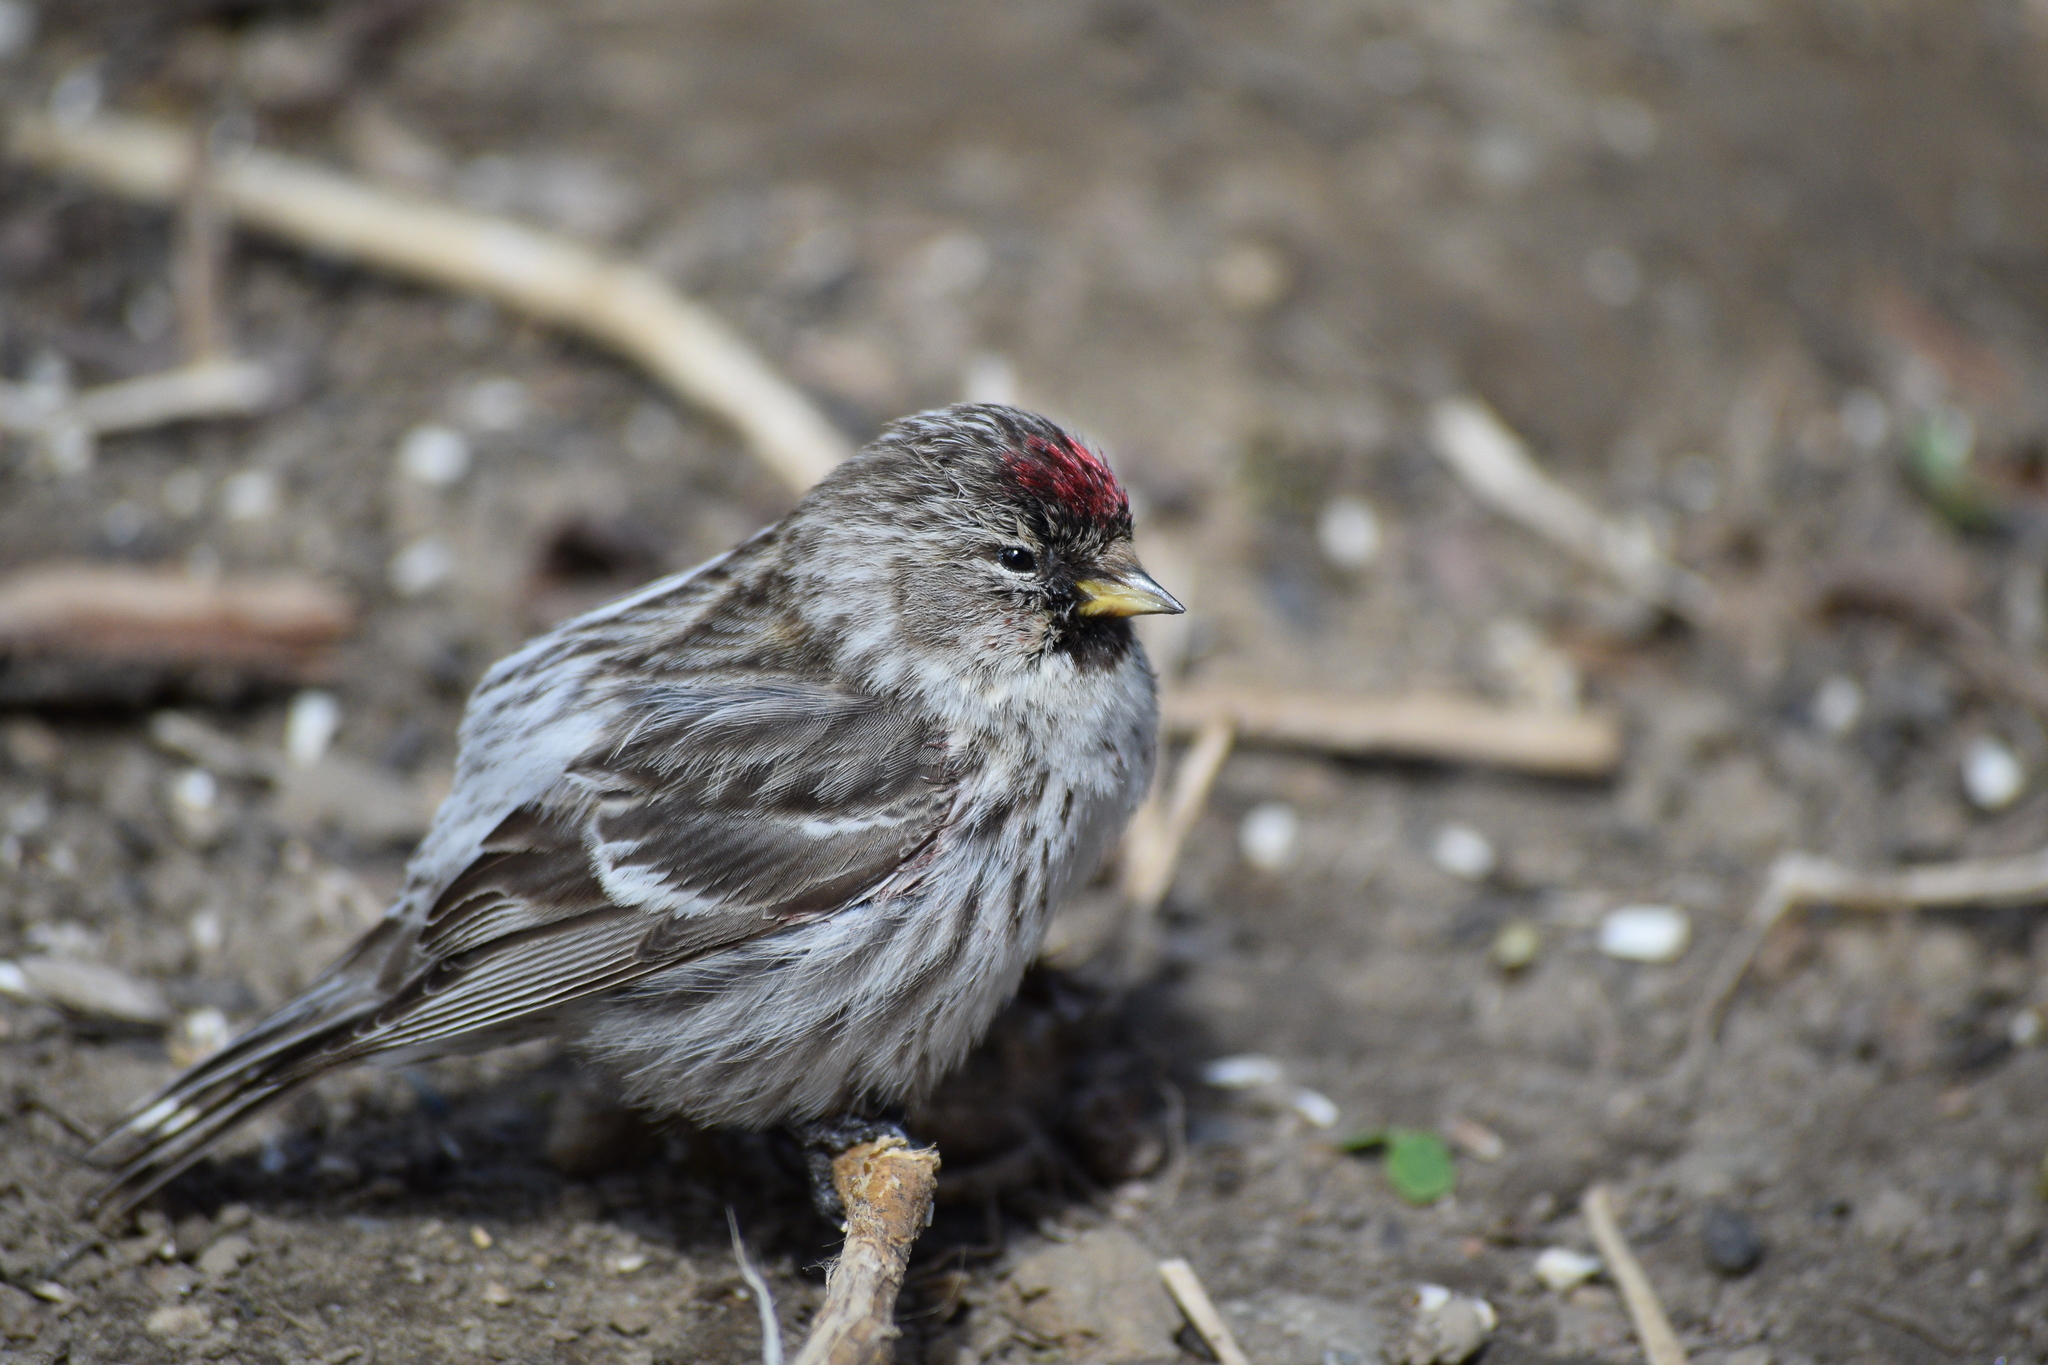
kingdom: Animalia
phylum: Chordata
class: Aves
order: Passeriformes
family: Fringillidae
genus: Acanthis
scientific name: Acanthis flammea
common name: Common redpoll
